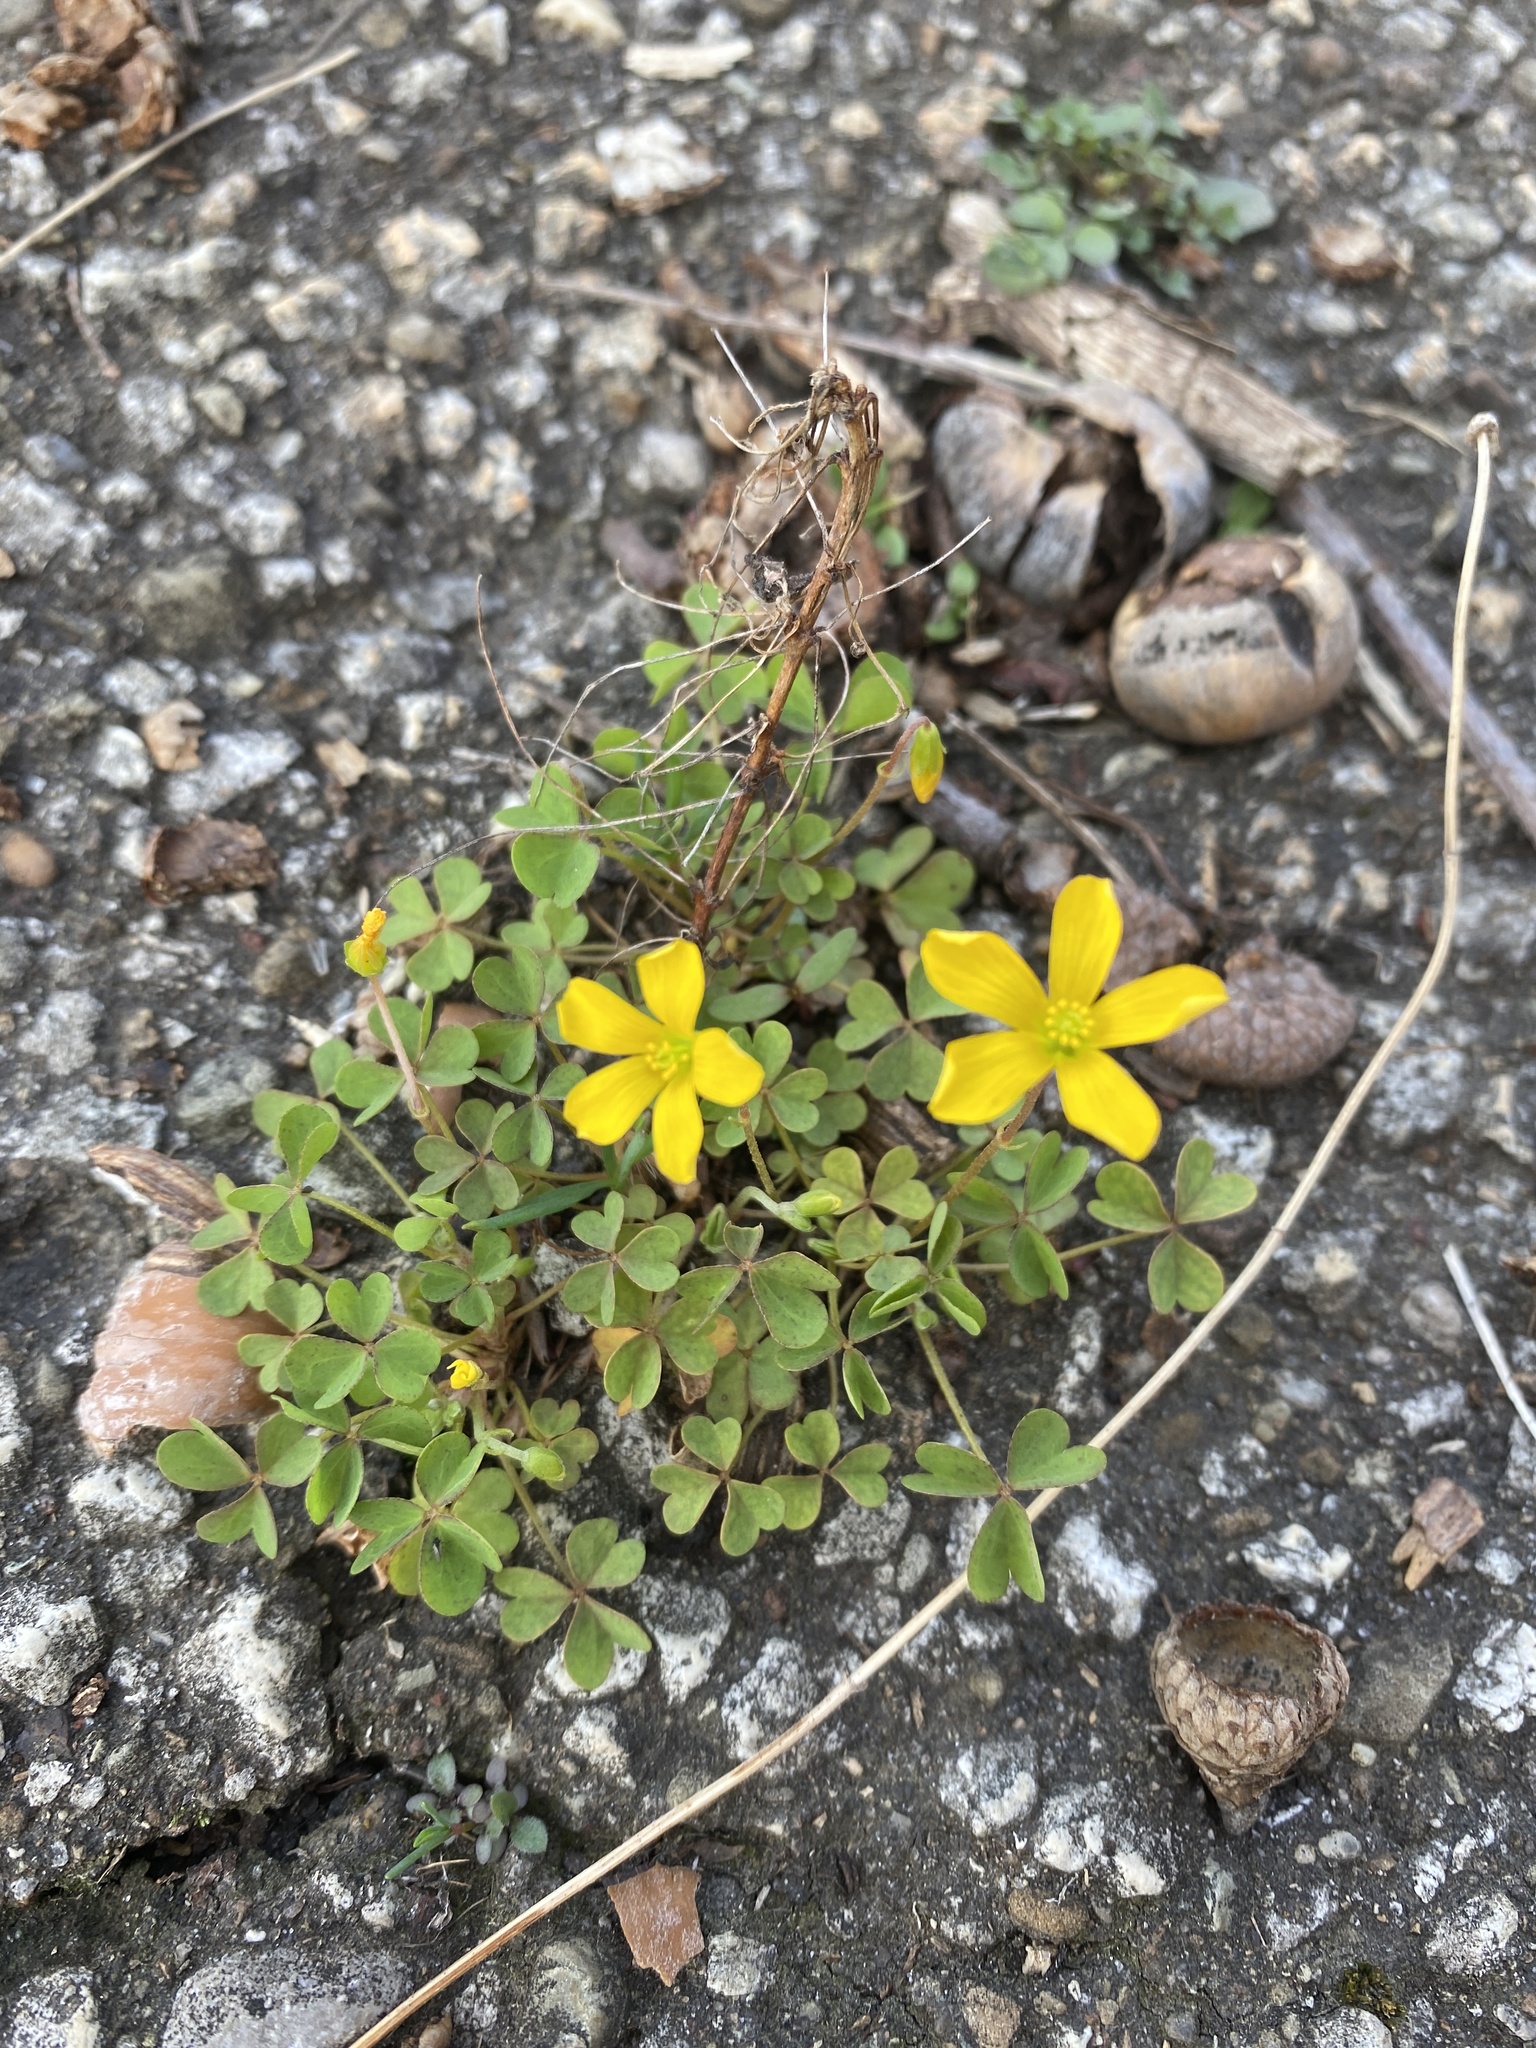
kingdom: Plantae
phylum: Tracheophyta
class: Magnoliopsida
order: Oxalidales
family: Oxalidaceae
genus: Oxalis
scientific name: Oxalis corniculata
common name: Procumbent yellow-sorrel
